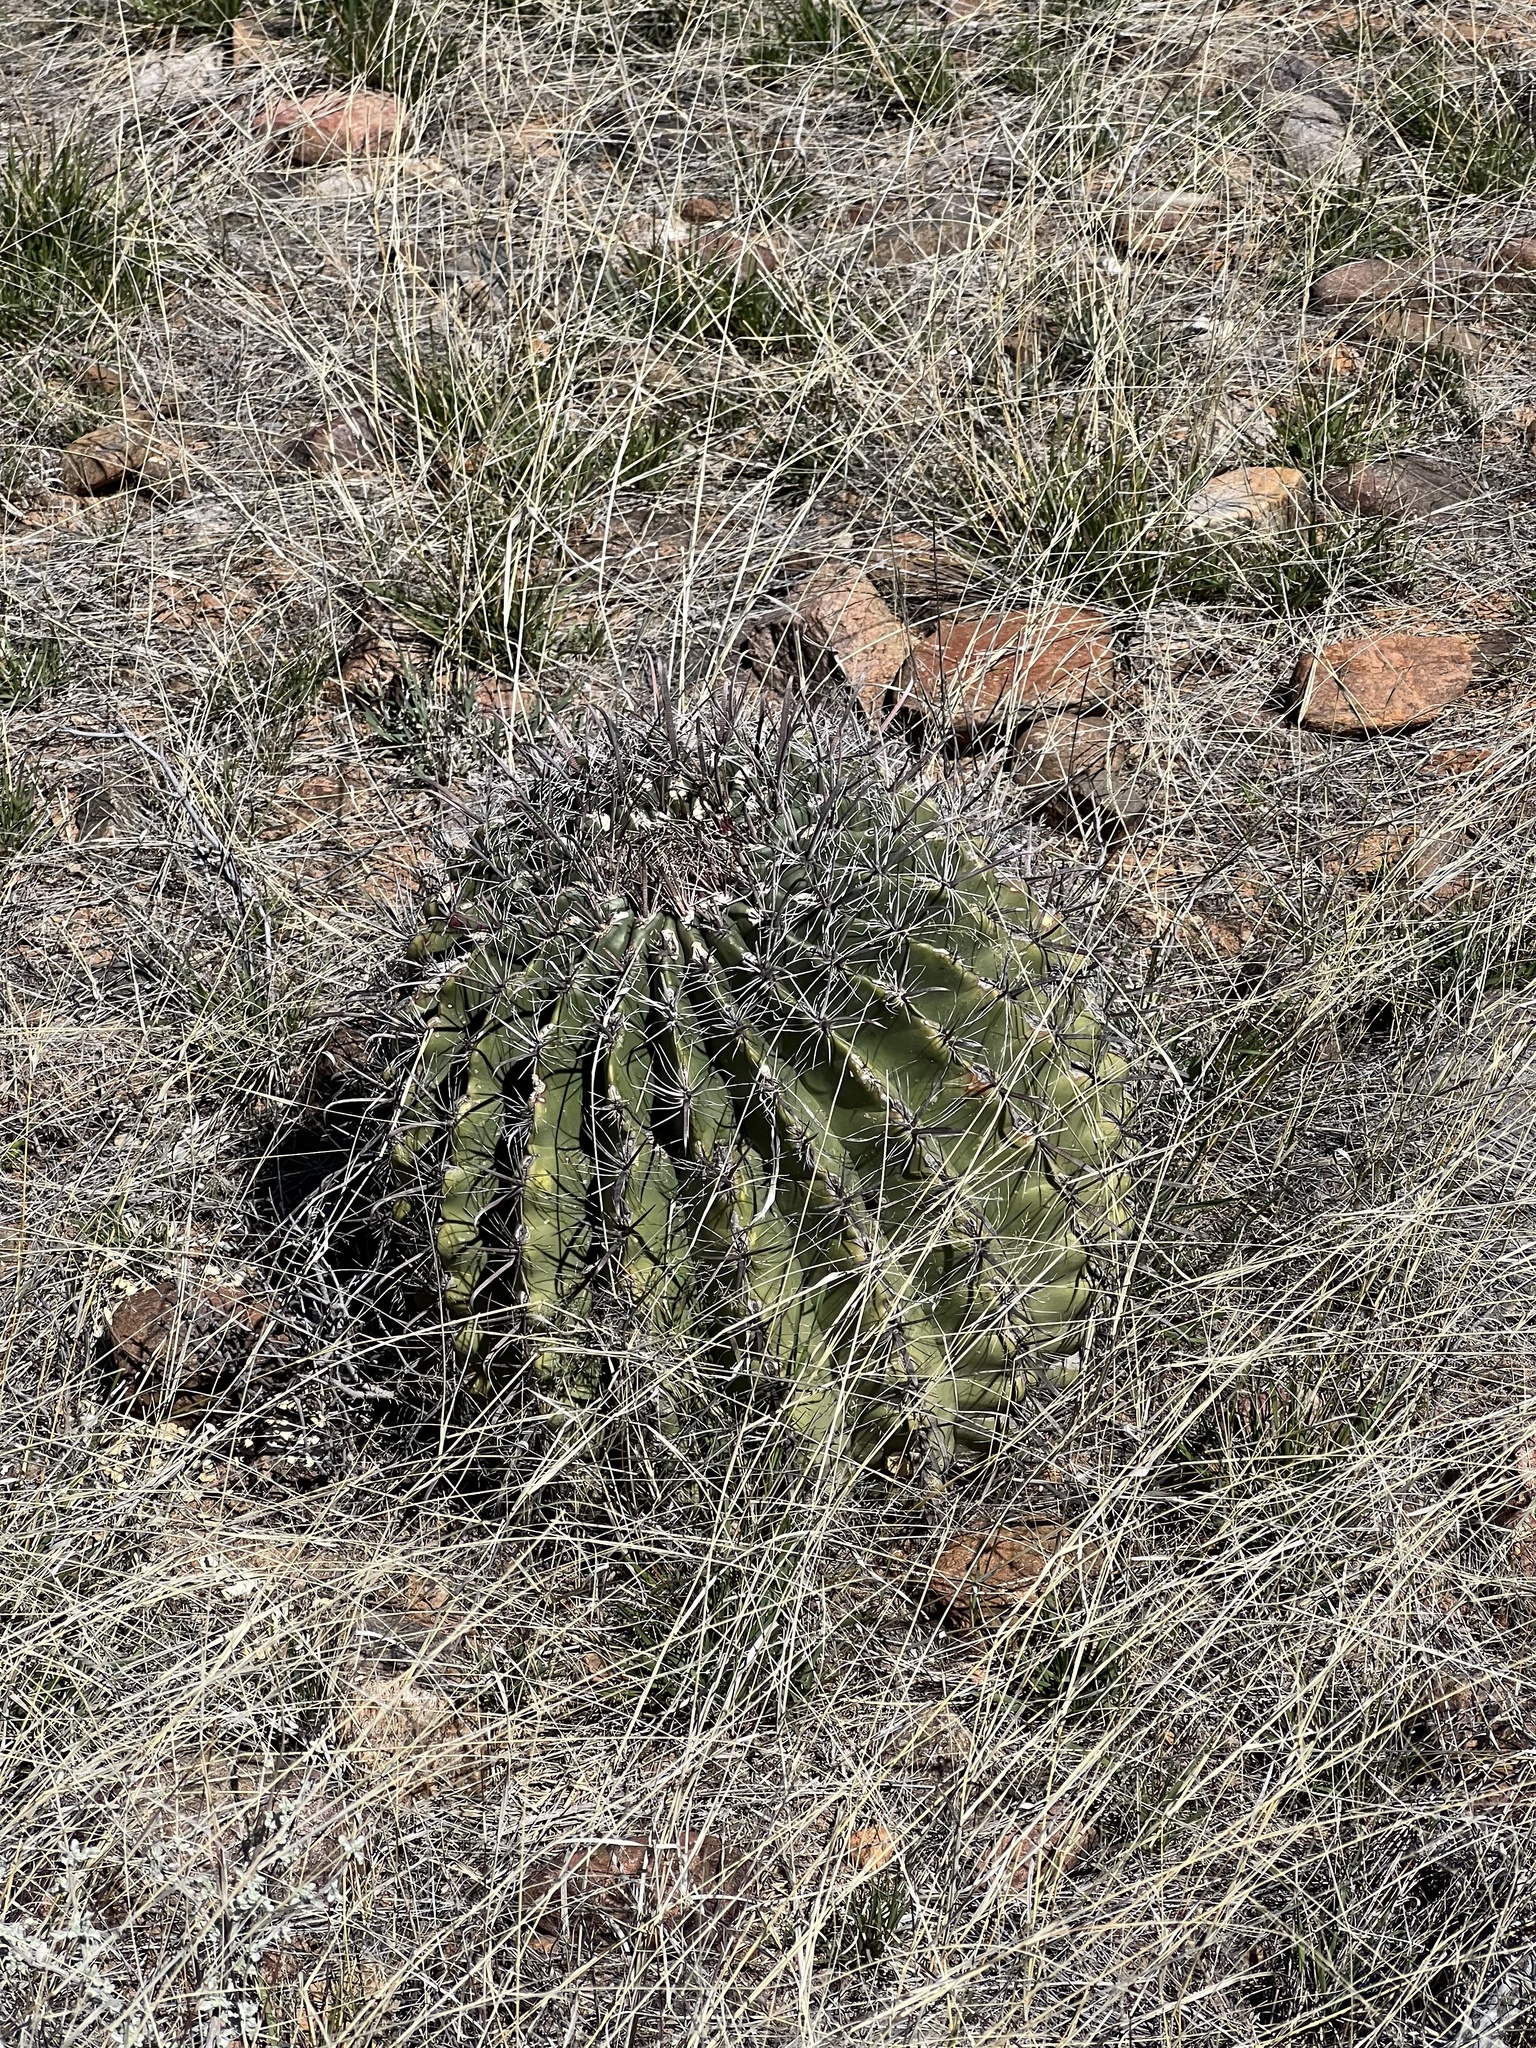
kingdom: Plantae
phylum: Tracheophyta
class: Magnoliopsida
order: Caryophyllales
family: Cactaceae
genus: Ferocactus
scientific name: Ferocactus wislizeni
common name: Candy barrel cactus
